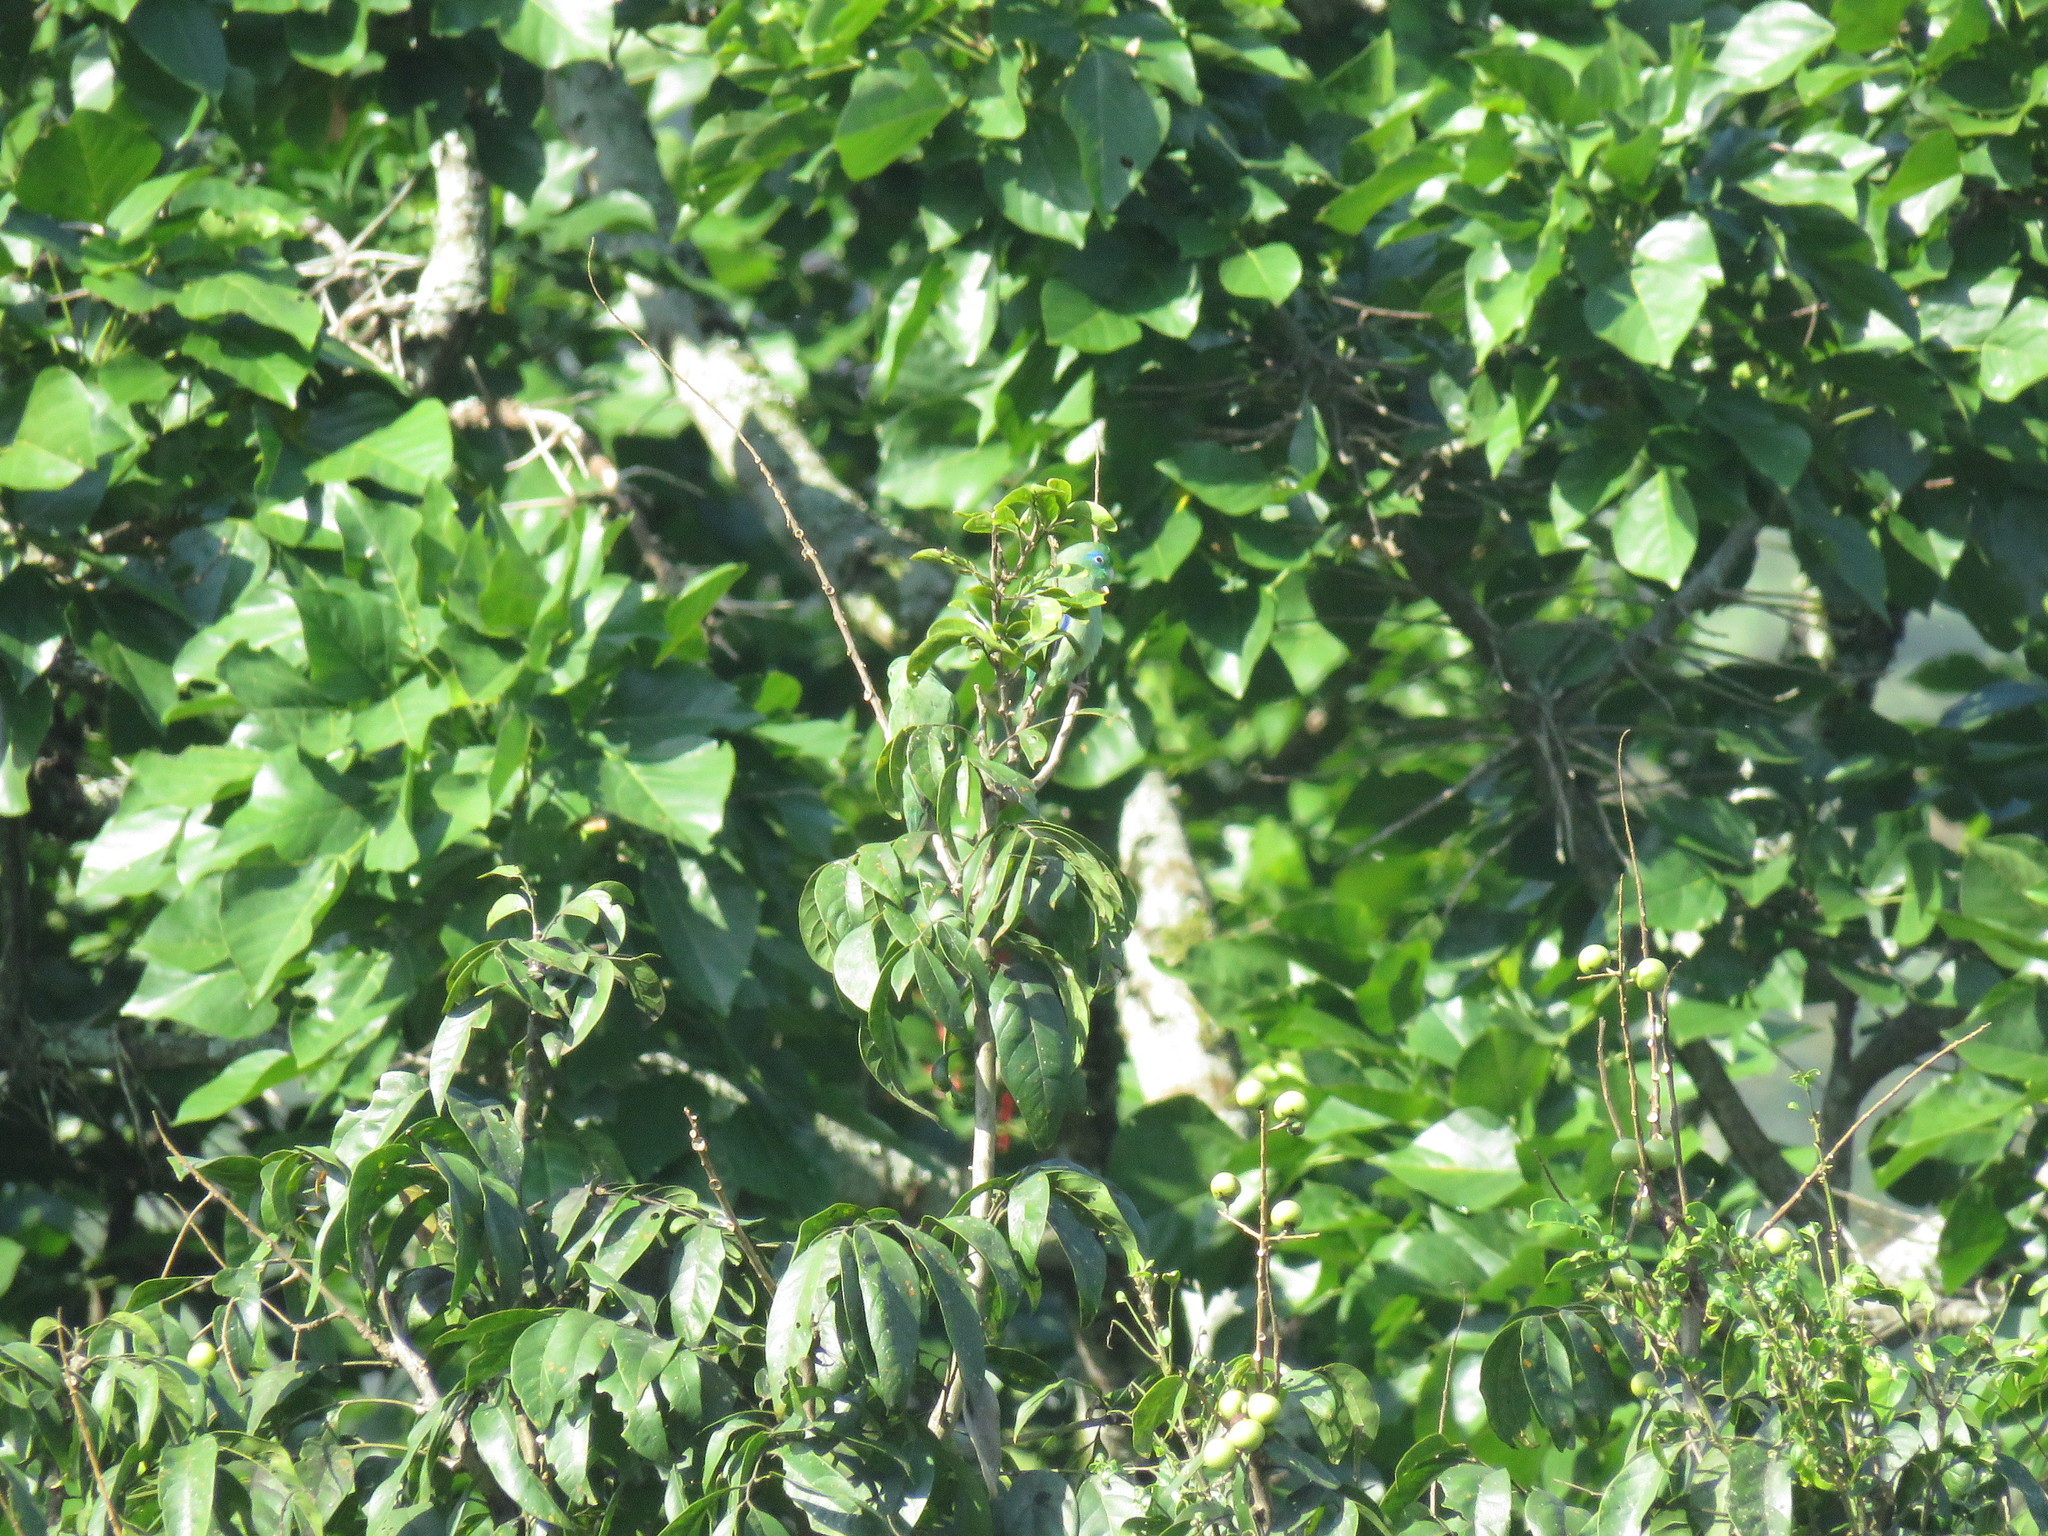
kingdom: Animalia
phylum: Chordata
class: Aves
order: Psittaciformes
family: Psittacidae
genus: Forpus
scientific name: Forpus conspicillatus
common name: Spectacled parrotlet
